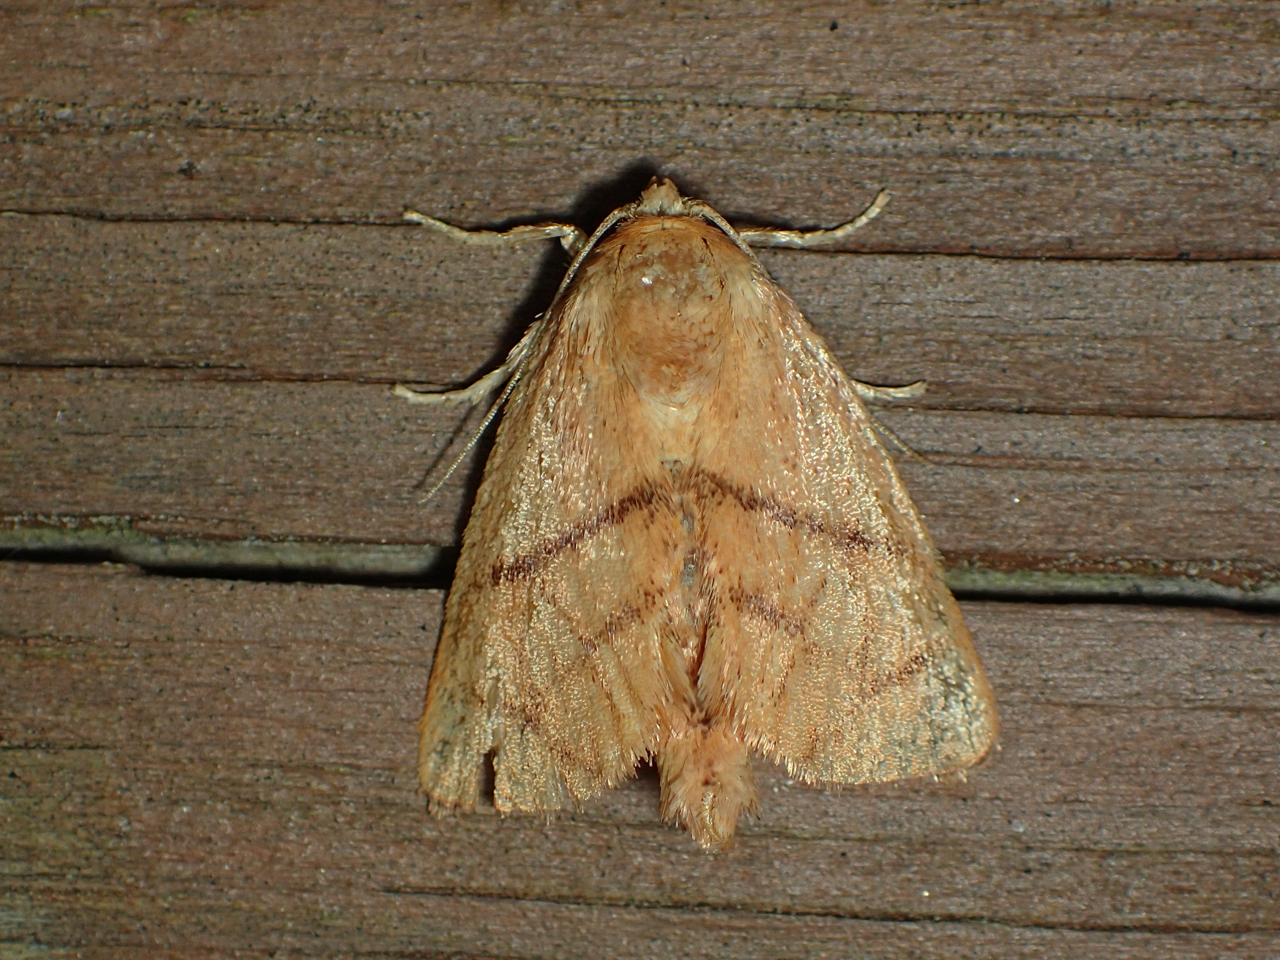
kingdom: Animalia
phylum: Arthropoda
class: Insecta
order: Lepidoptera
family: Limacodidae
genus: Apoda
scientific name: Apoda y-inversa
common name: Yellow-collared slug moth
